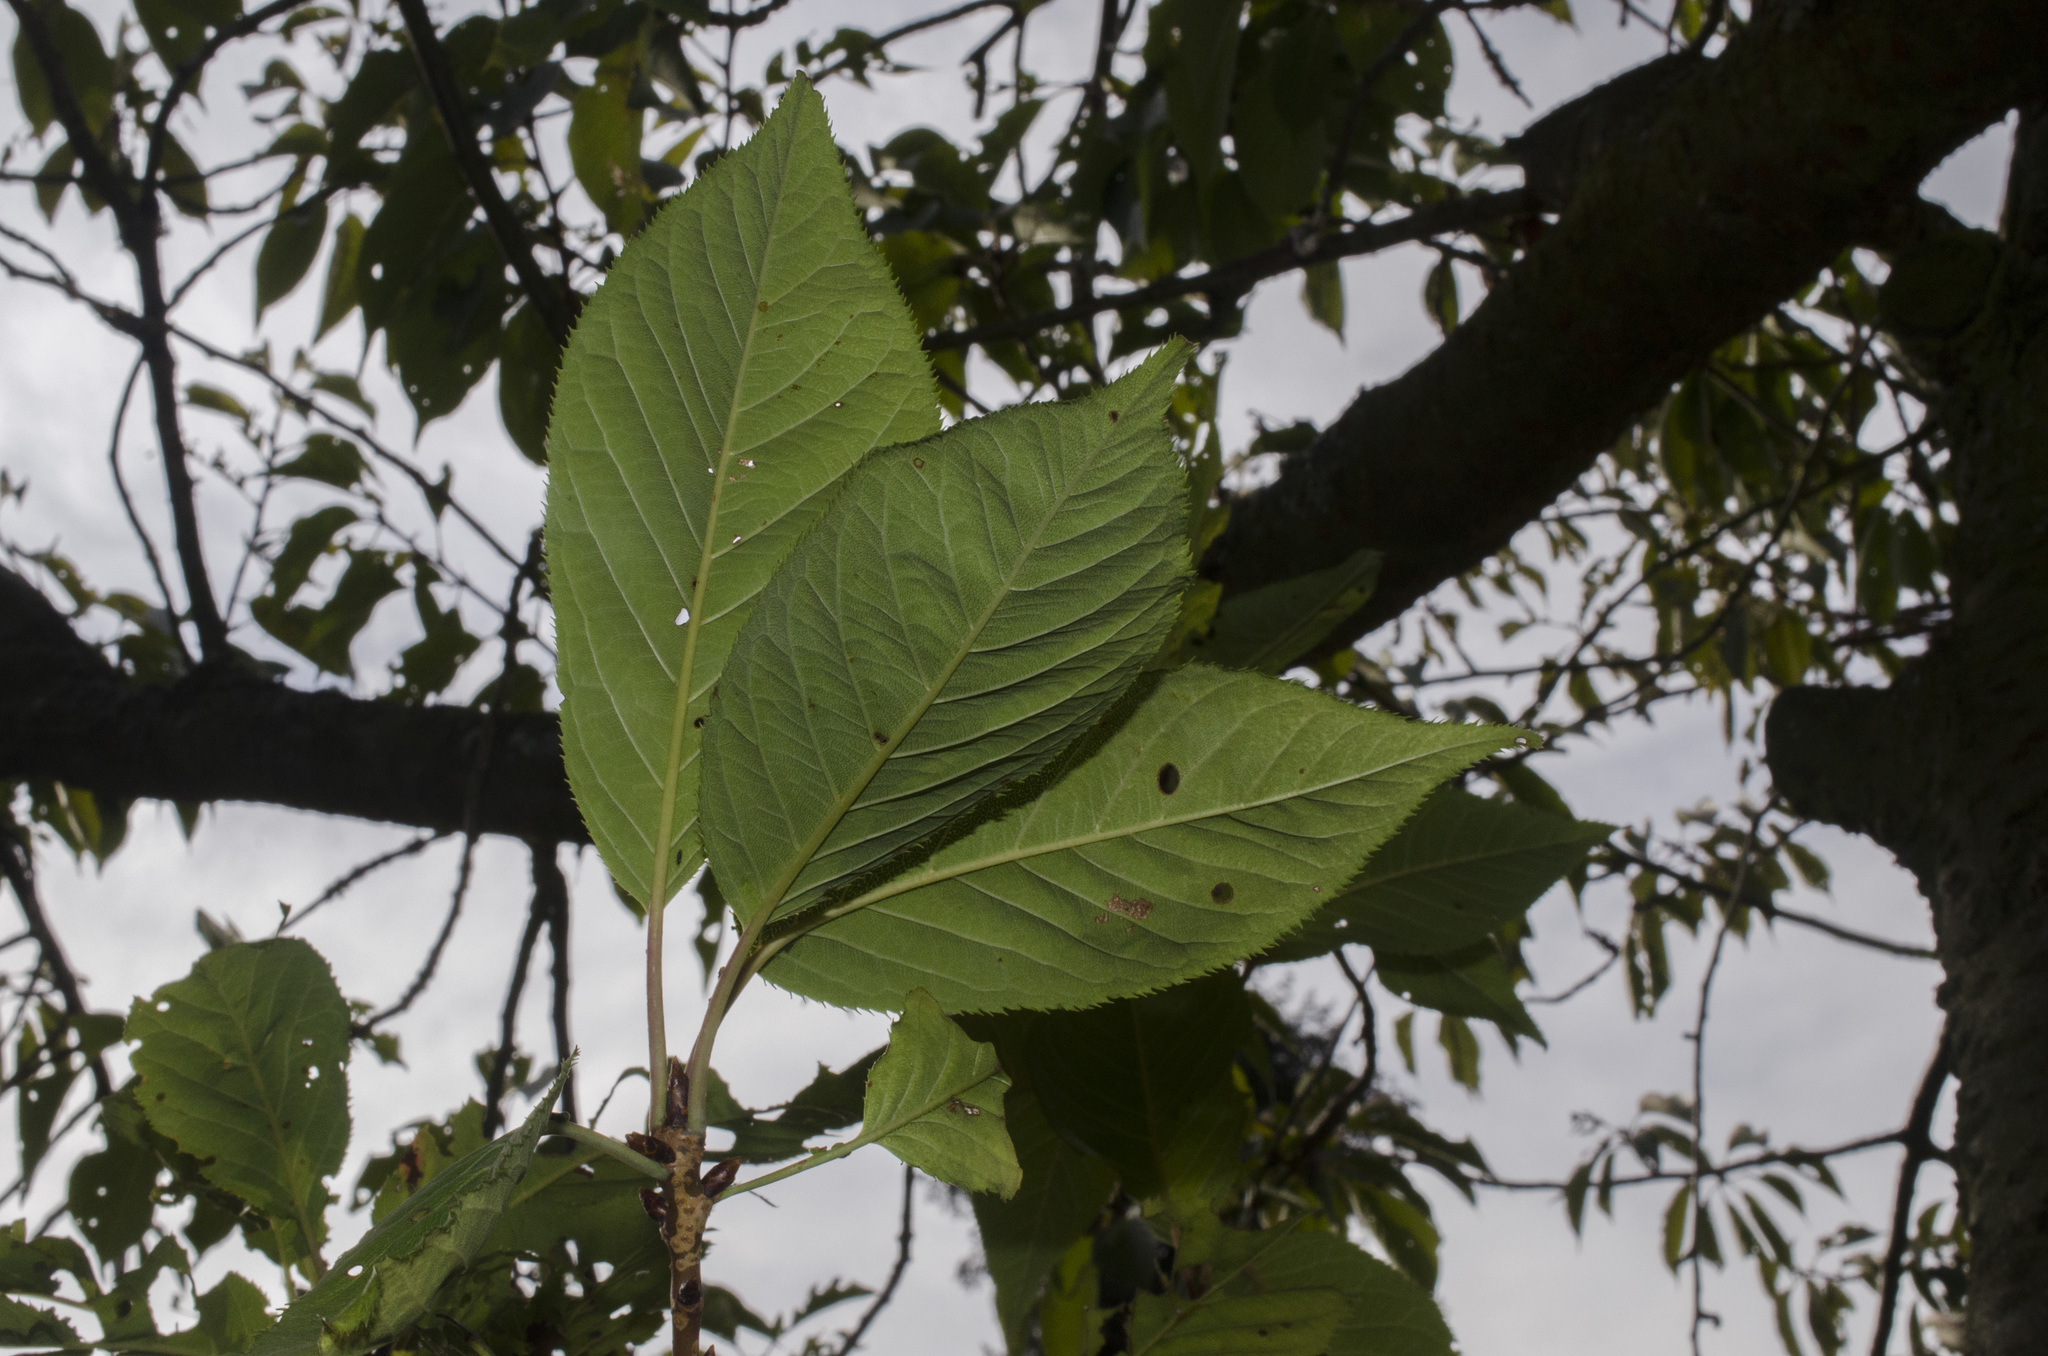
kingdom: Fungi
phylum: Basidiomycota
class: Agaricomycetes
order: Agaricales
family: Tubariaceae
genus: Tubaria
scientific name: Tubaria vinicolor
